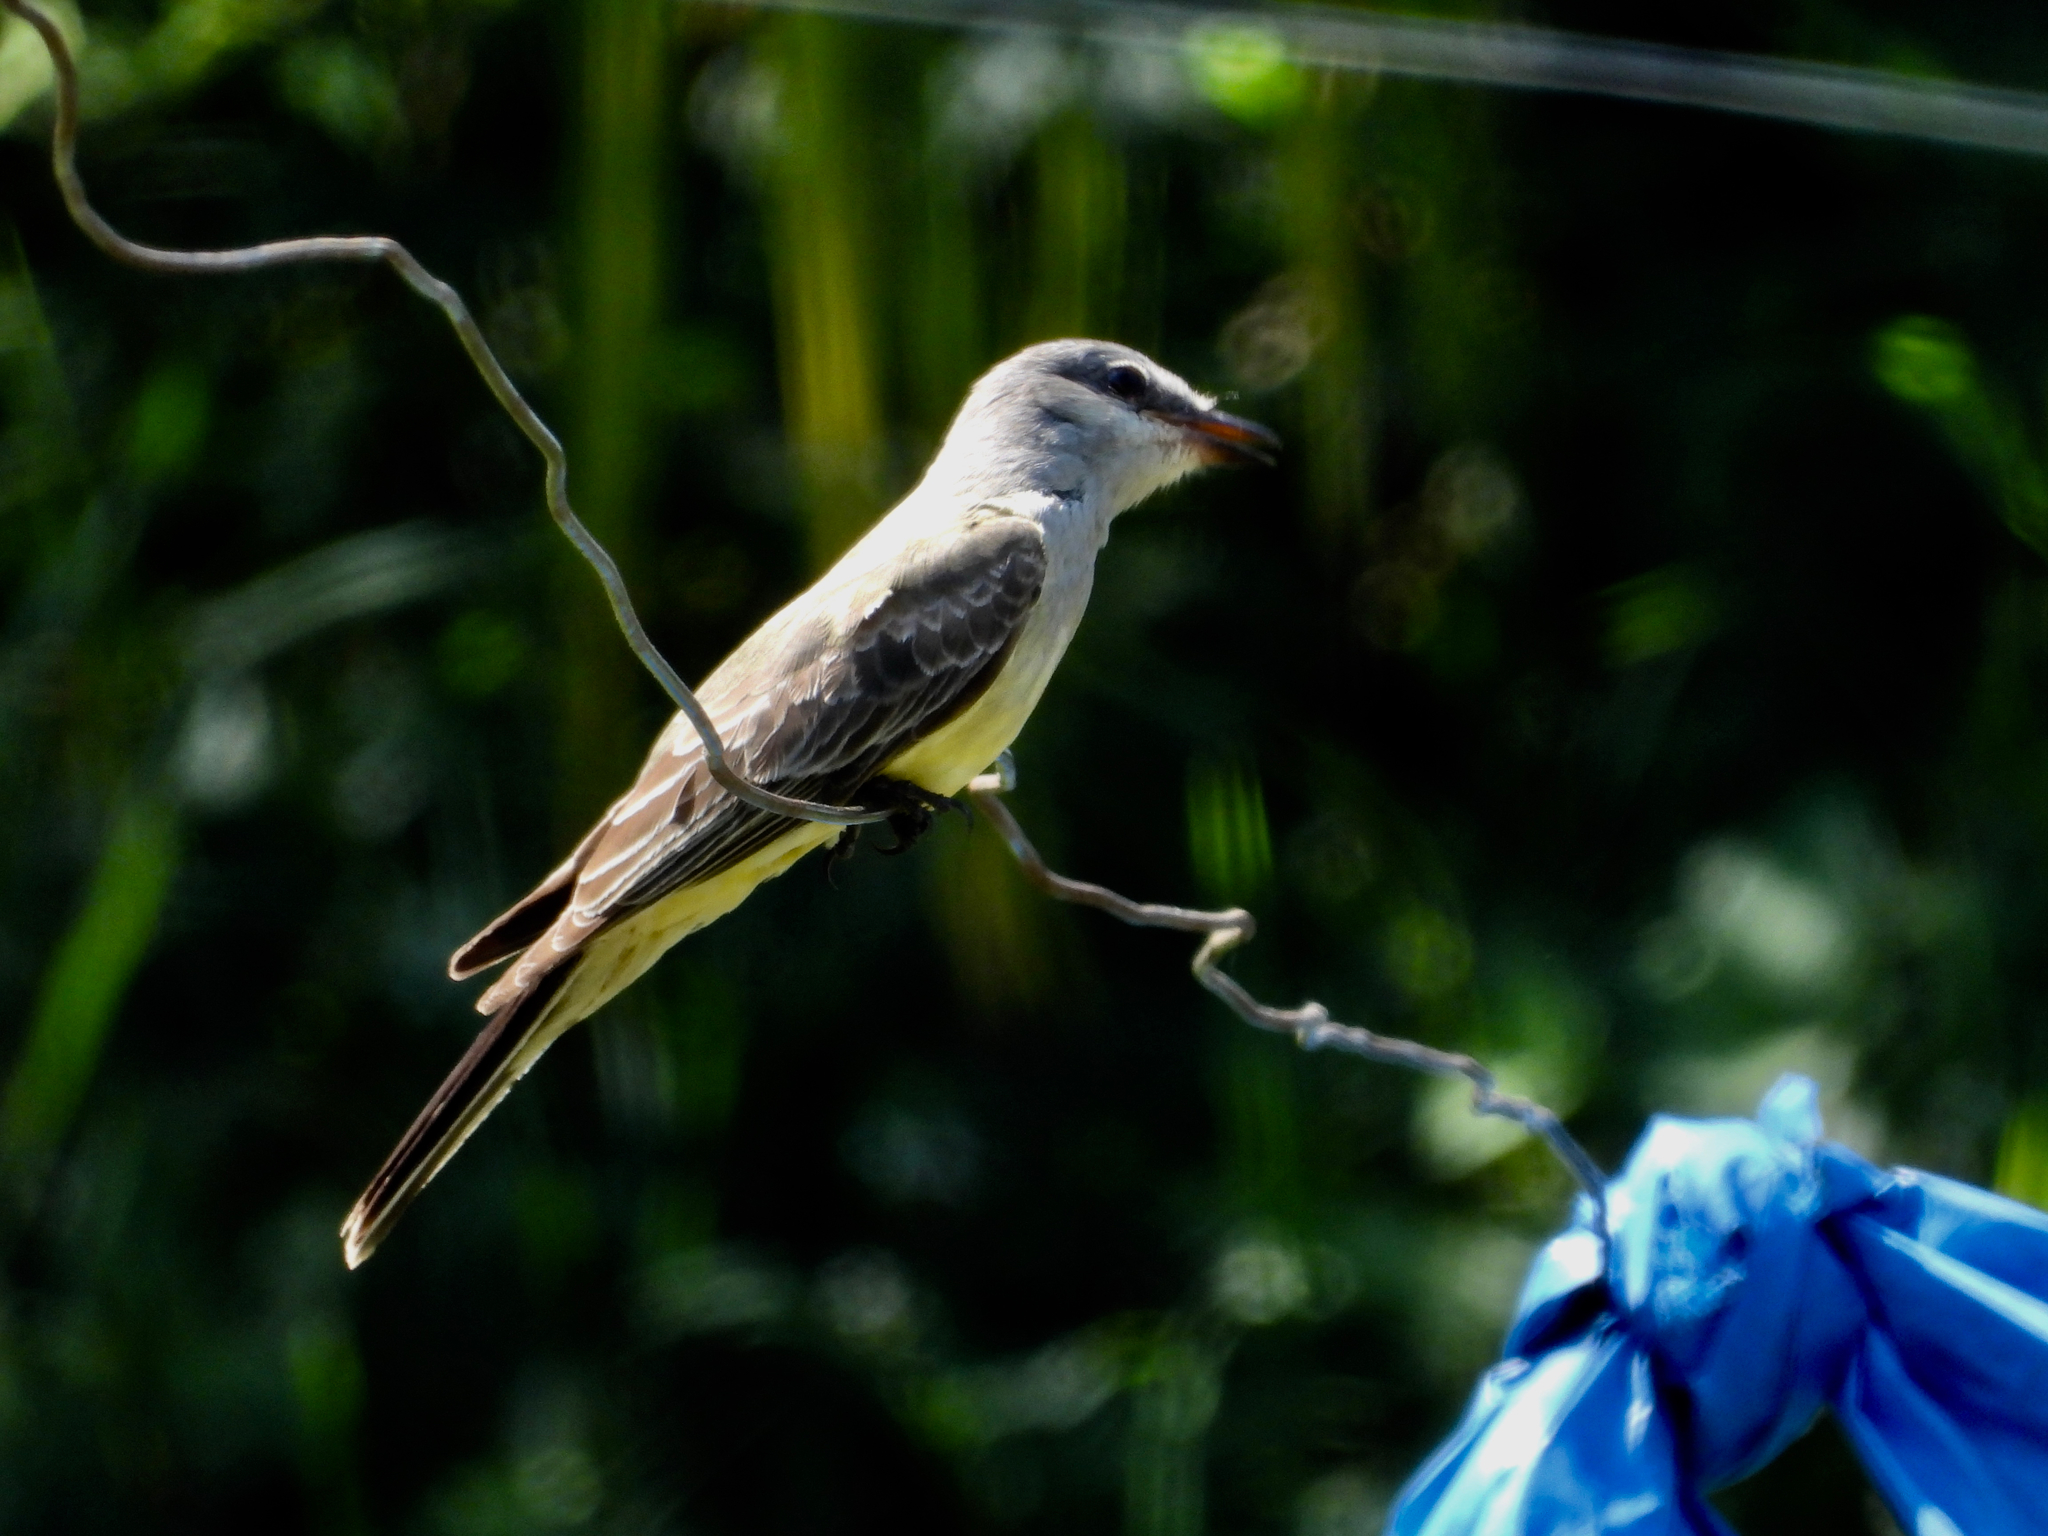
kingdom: Animalia
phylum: Chordata
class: Aves
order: Passeriformes
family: Tyrannidae
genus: Tyrannus
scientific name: Tyrannus verticalis
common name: Western kingbird
